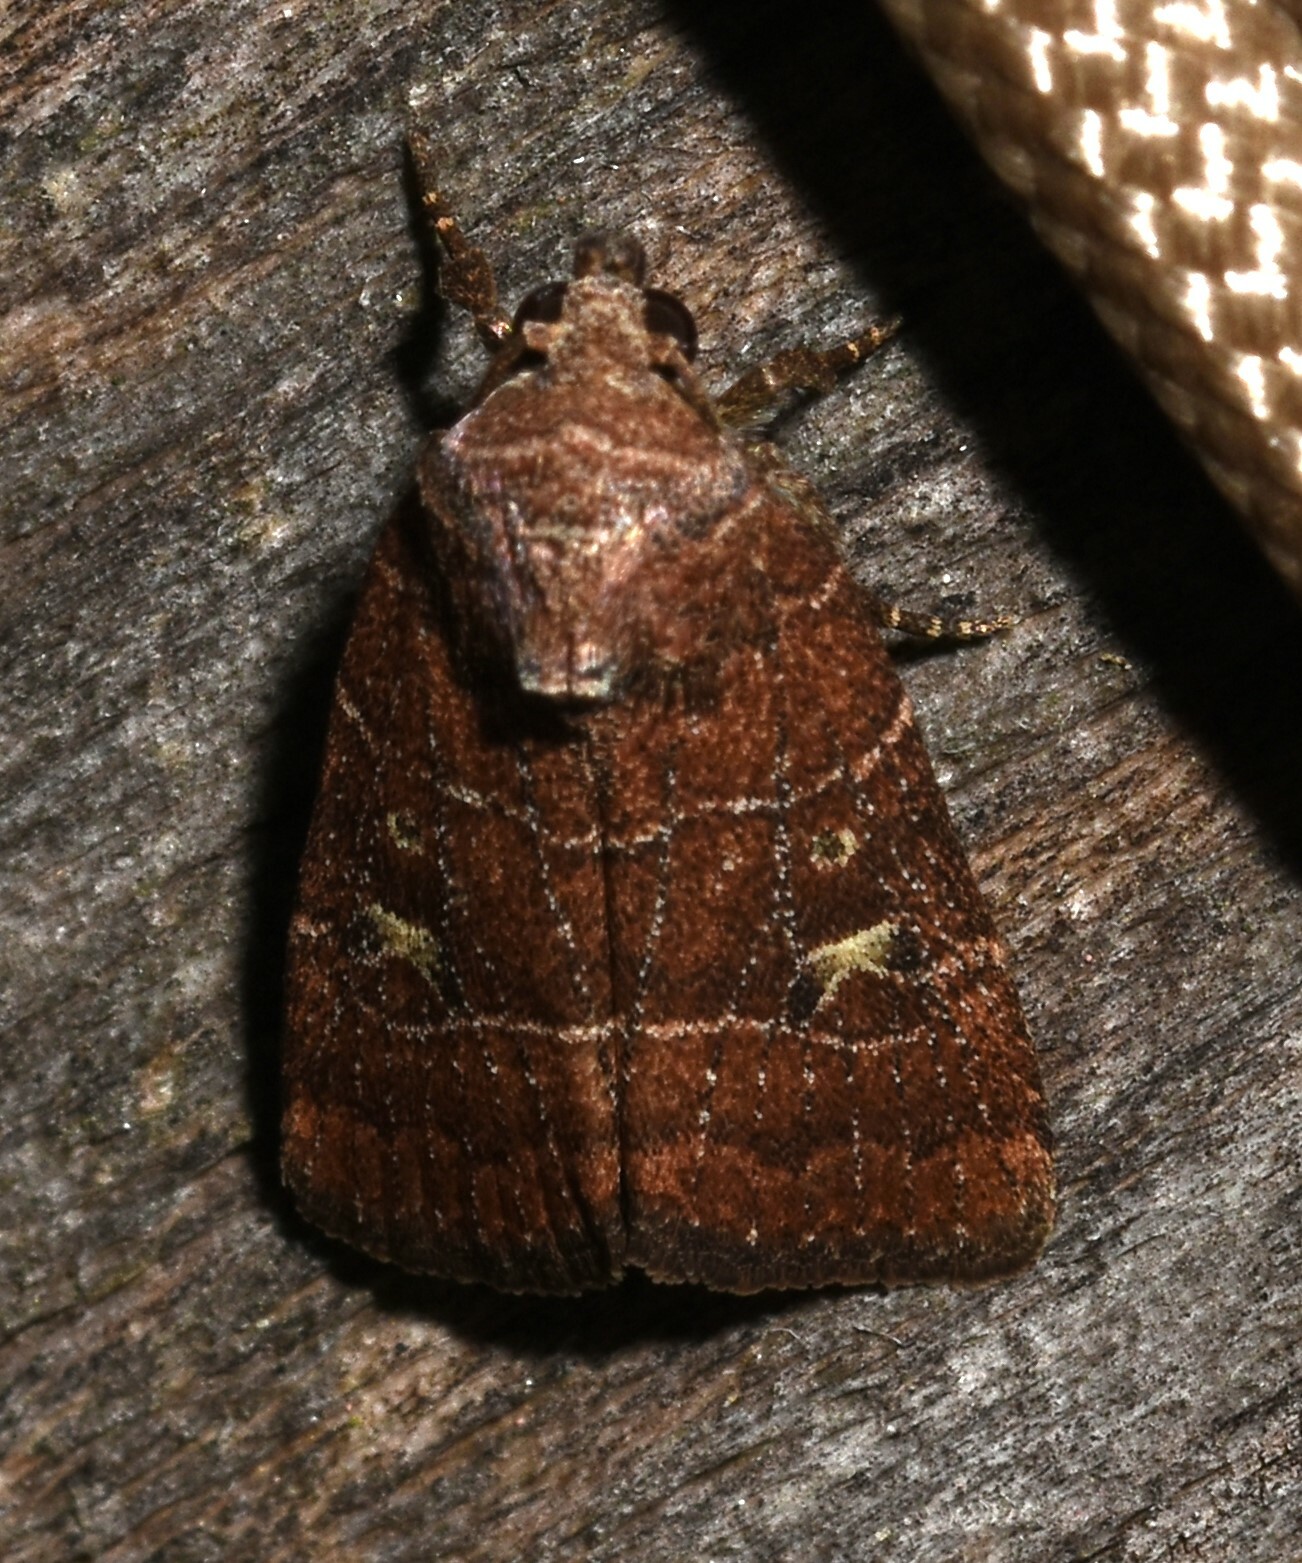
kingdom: Animalia
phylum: Arthropoda
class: Insecta
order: Lepidoptera
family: Noctuidae
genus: Elaphria
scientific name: Elaphria grata
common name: Grateful midget moth
